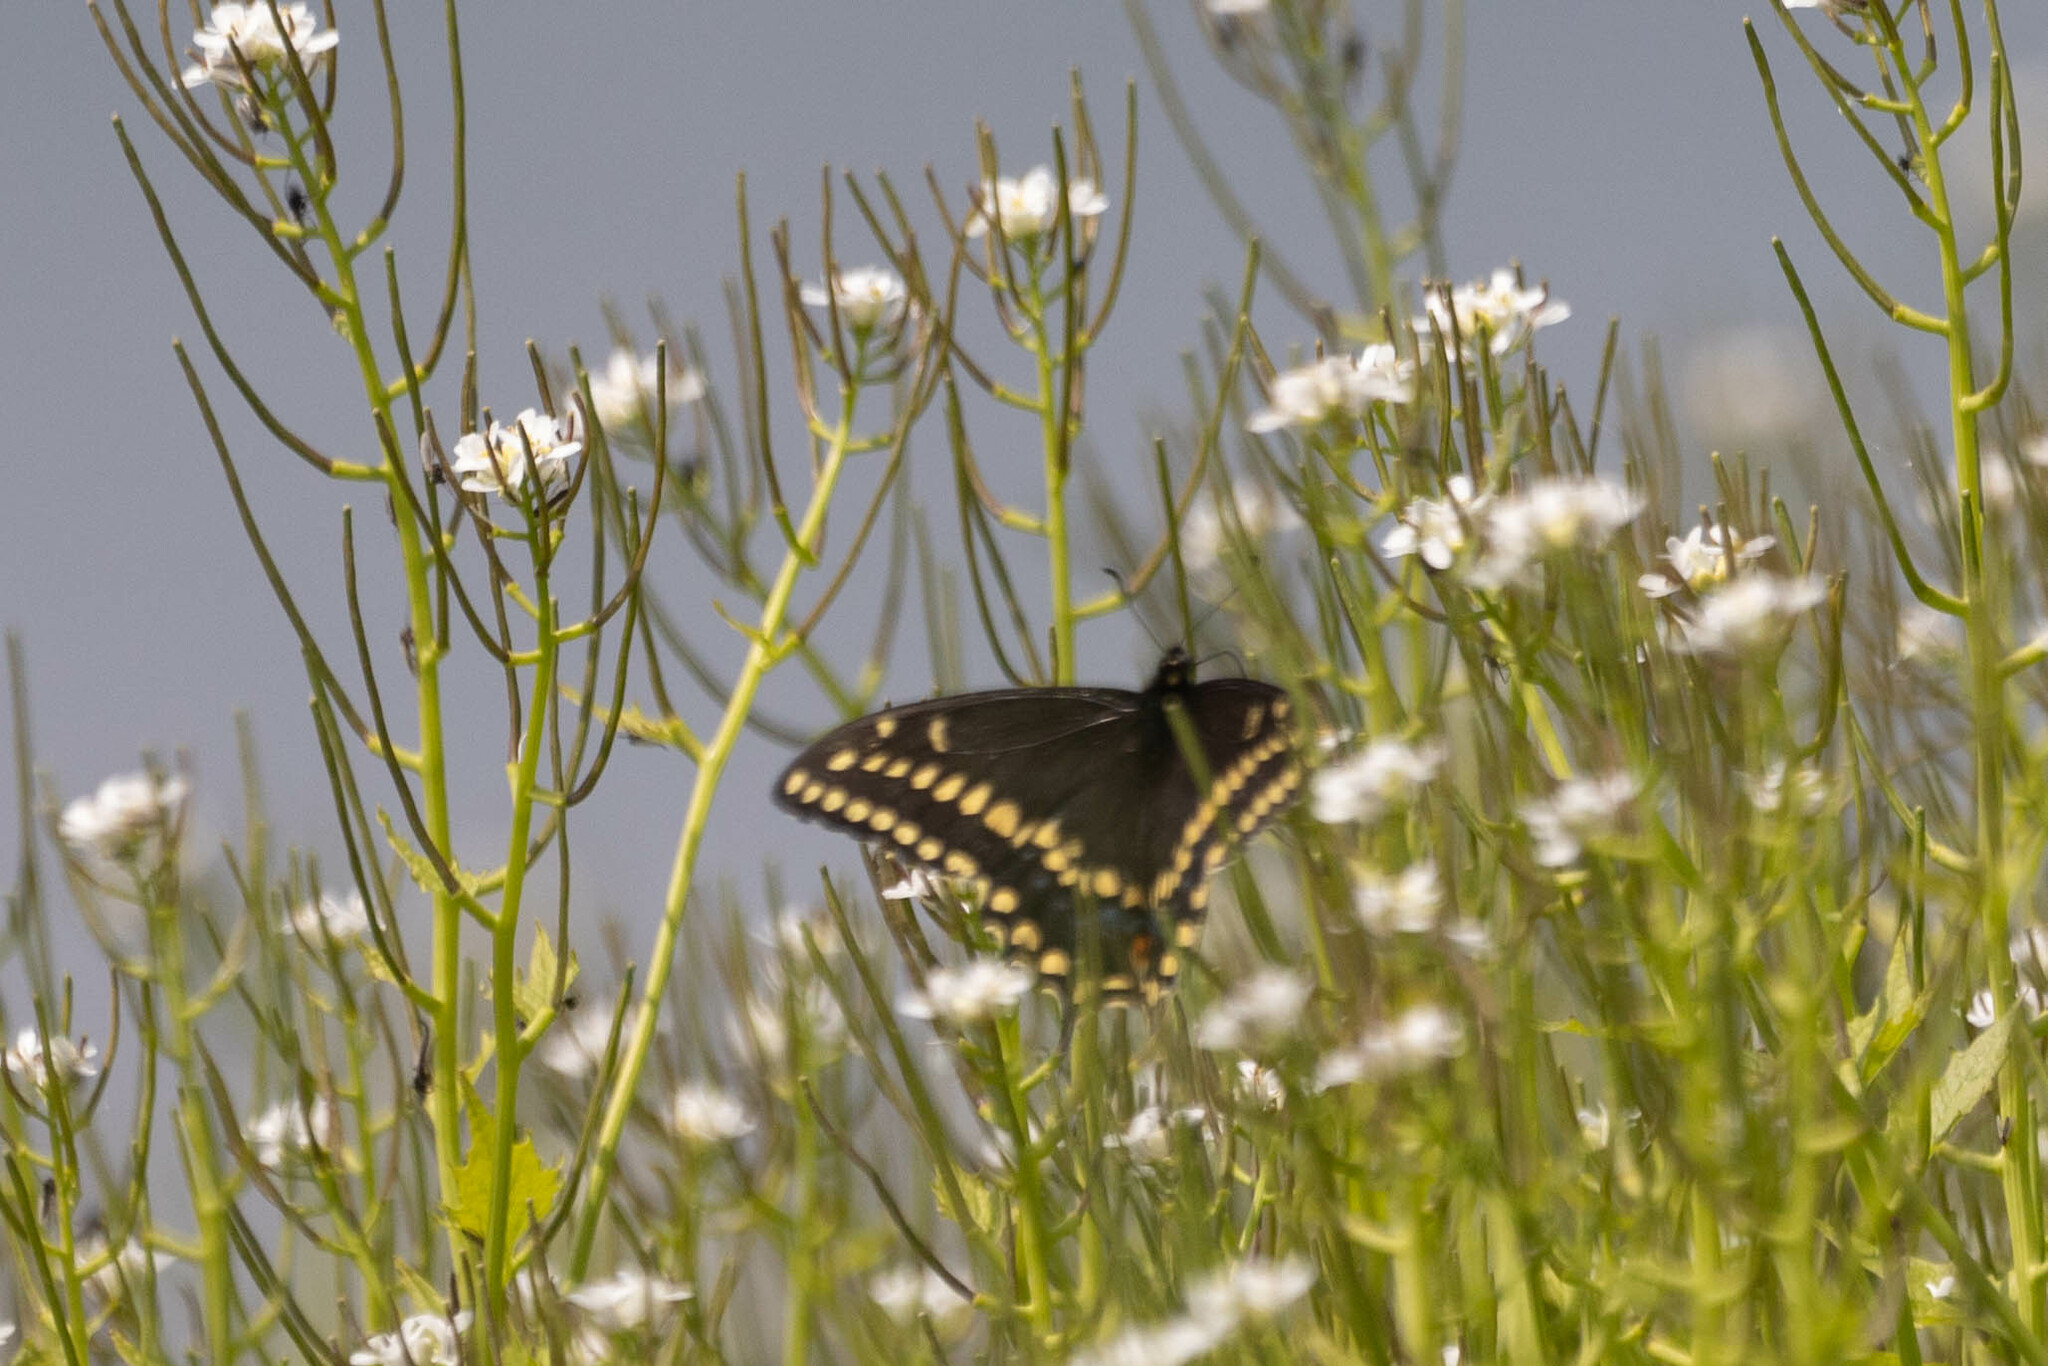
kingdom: Animalia
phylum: Arthropoda
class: Insecta
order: Lepidoptera
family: Papilionidae
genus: Papilio
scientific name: Papilio polyxenes
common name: Black swallowtail
